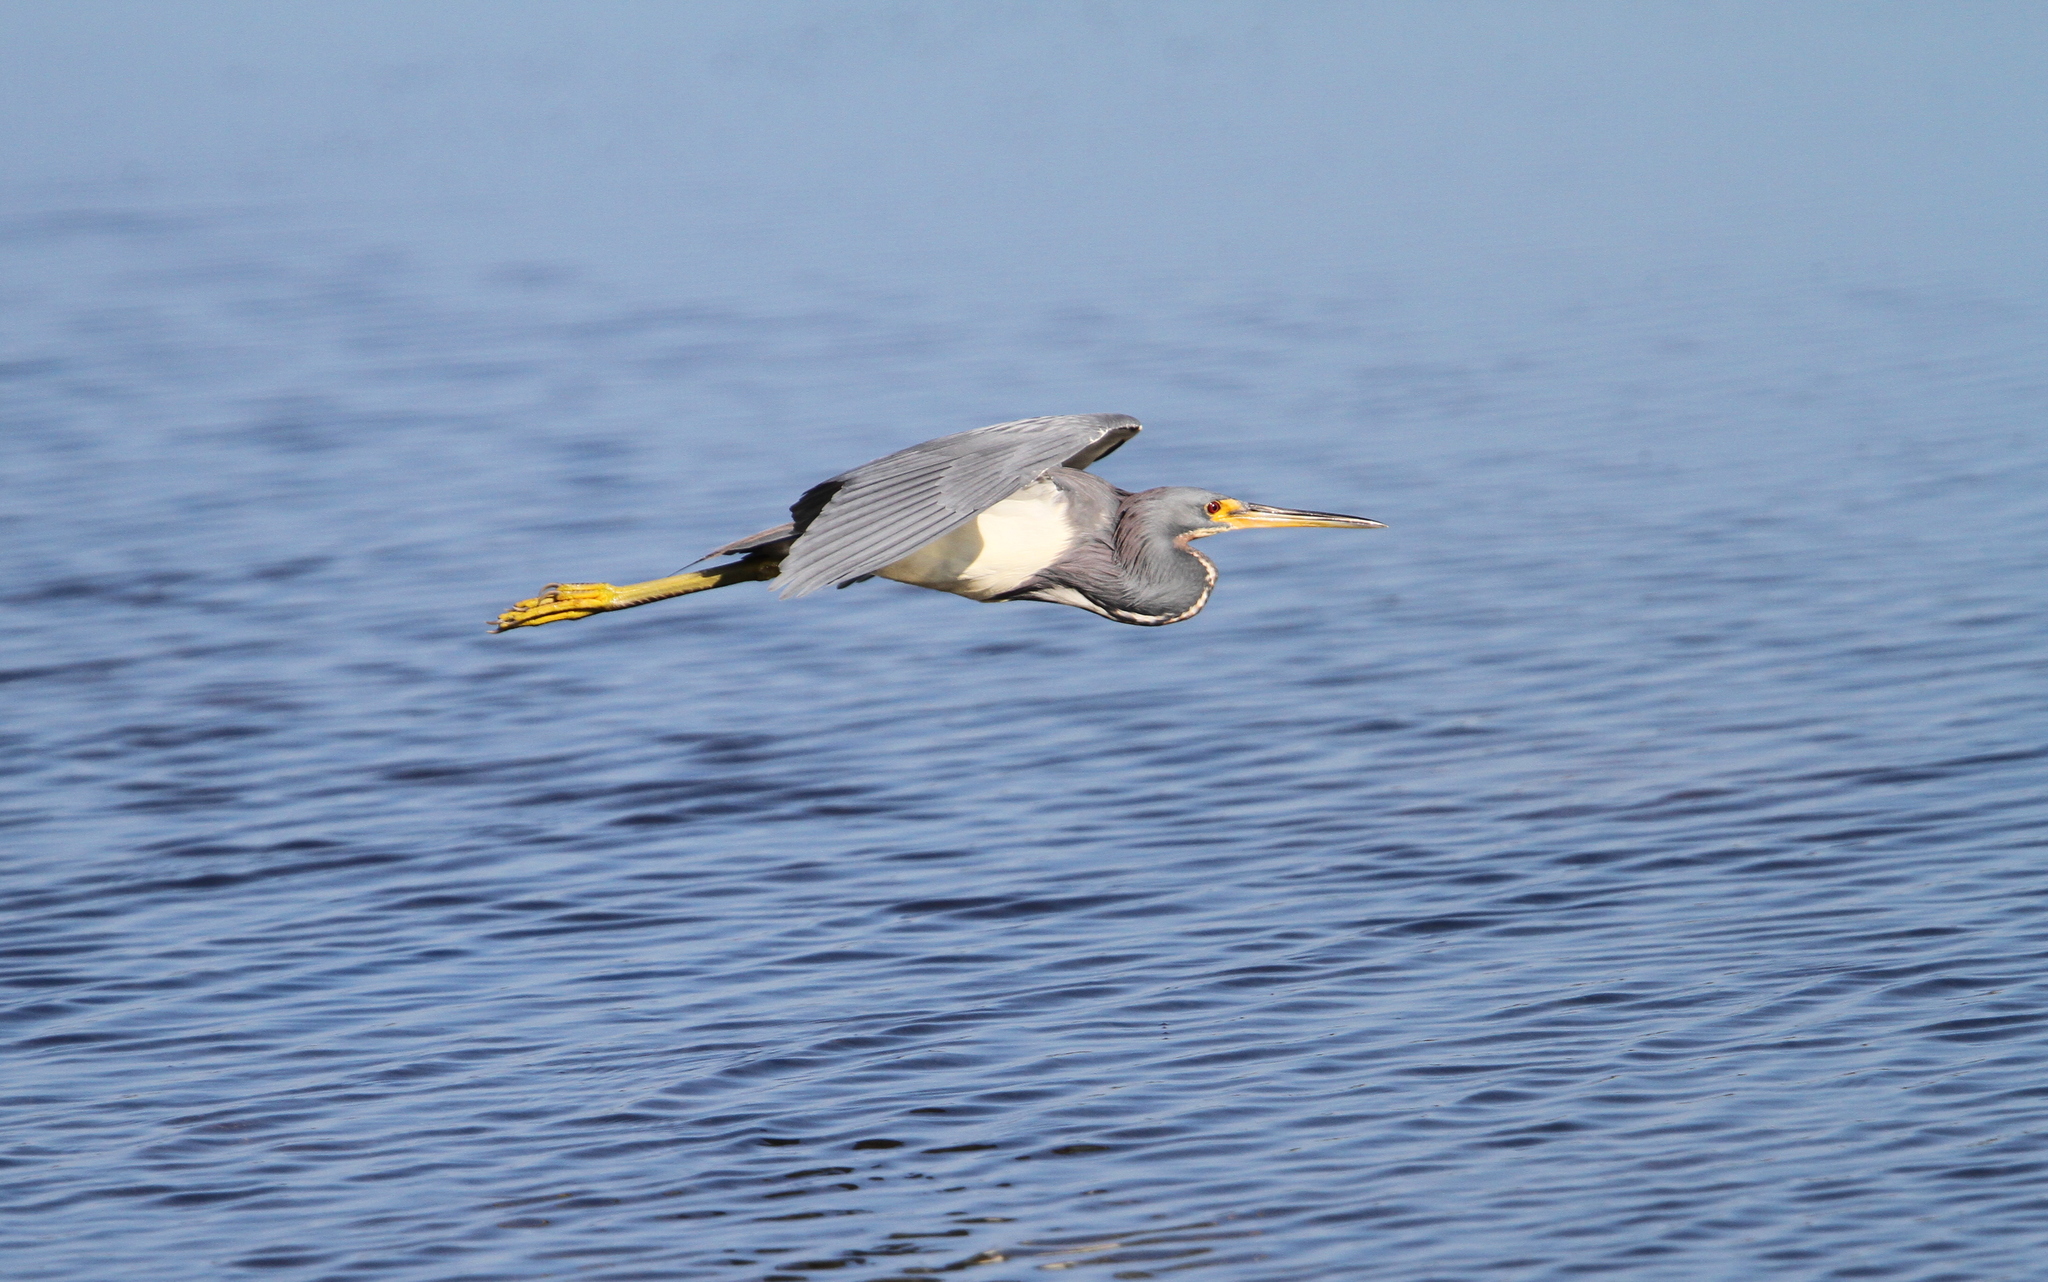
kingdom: Animalia
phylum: Chordata
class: Aves
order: Pelecaniformes
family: Ardeidae
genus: Egretta
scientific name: Egretta tricolor
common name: Tricolored heron
